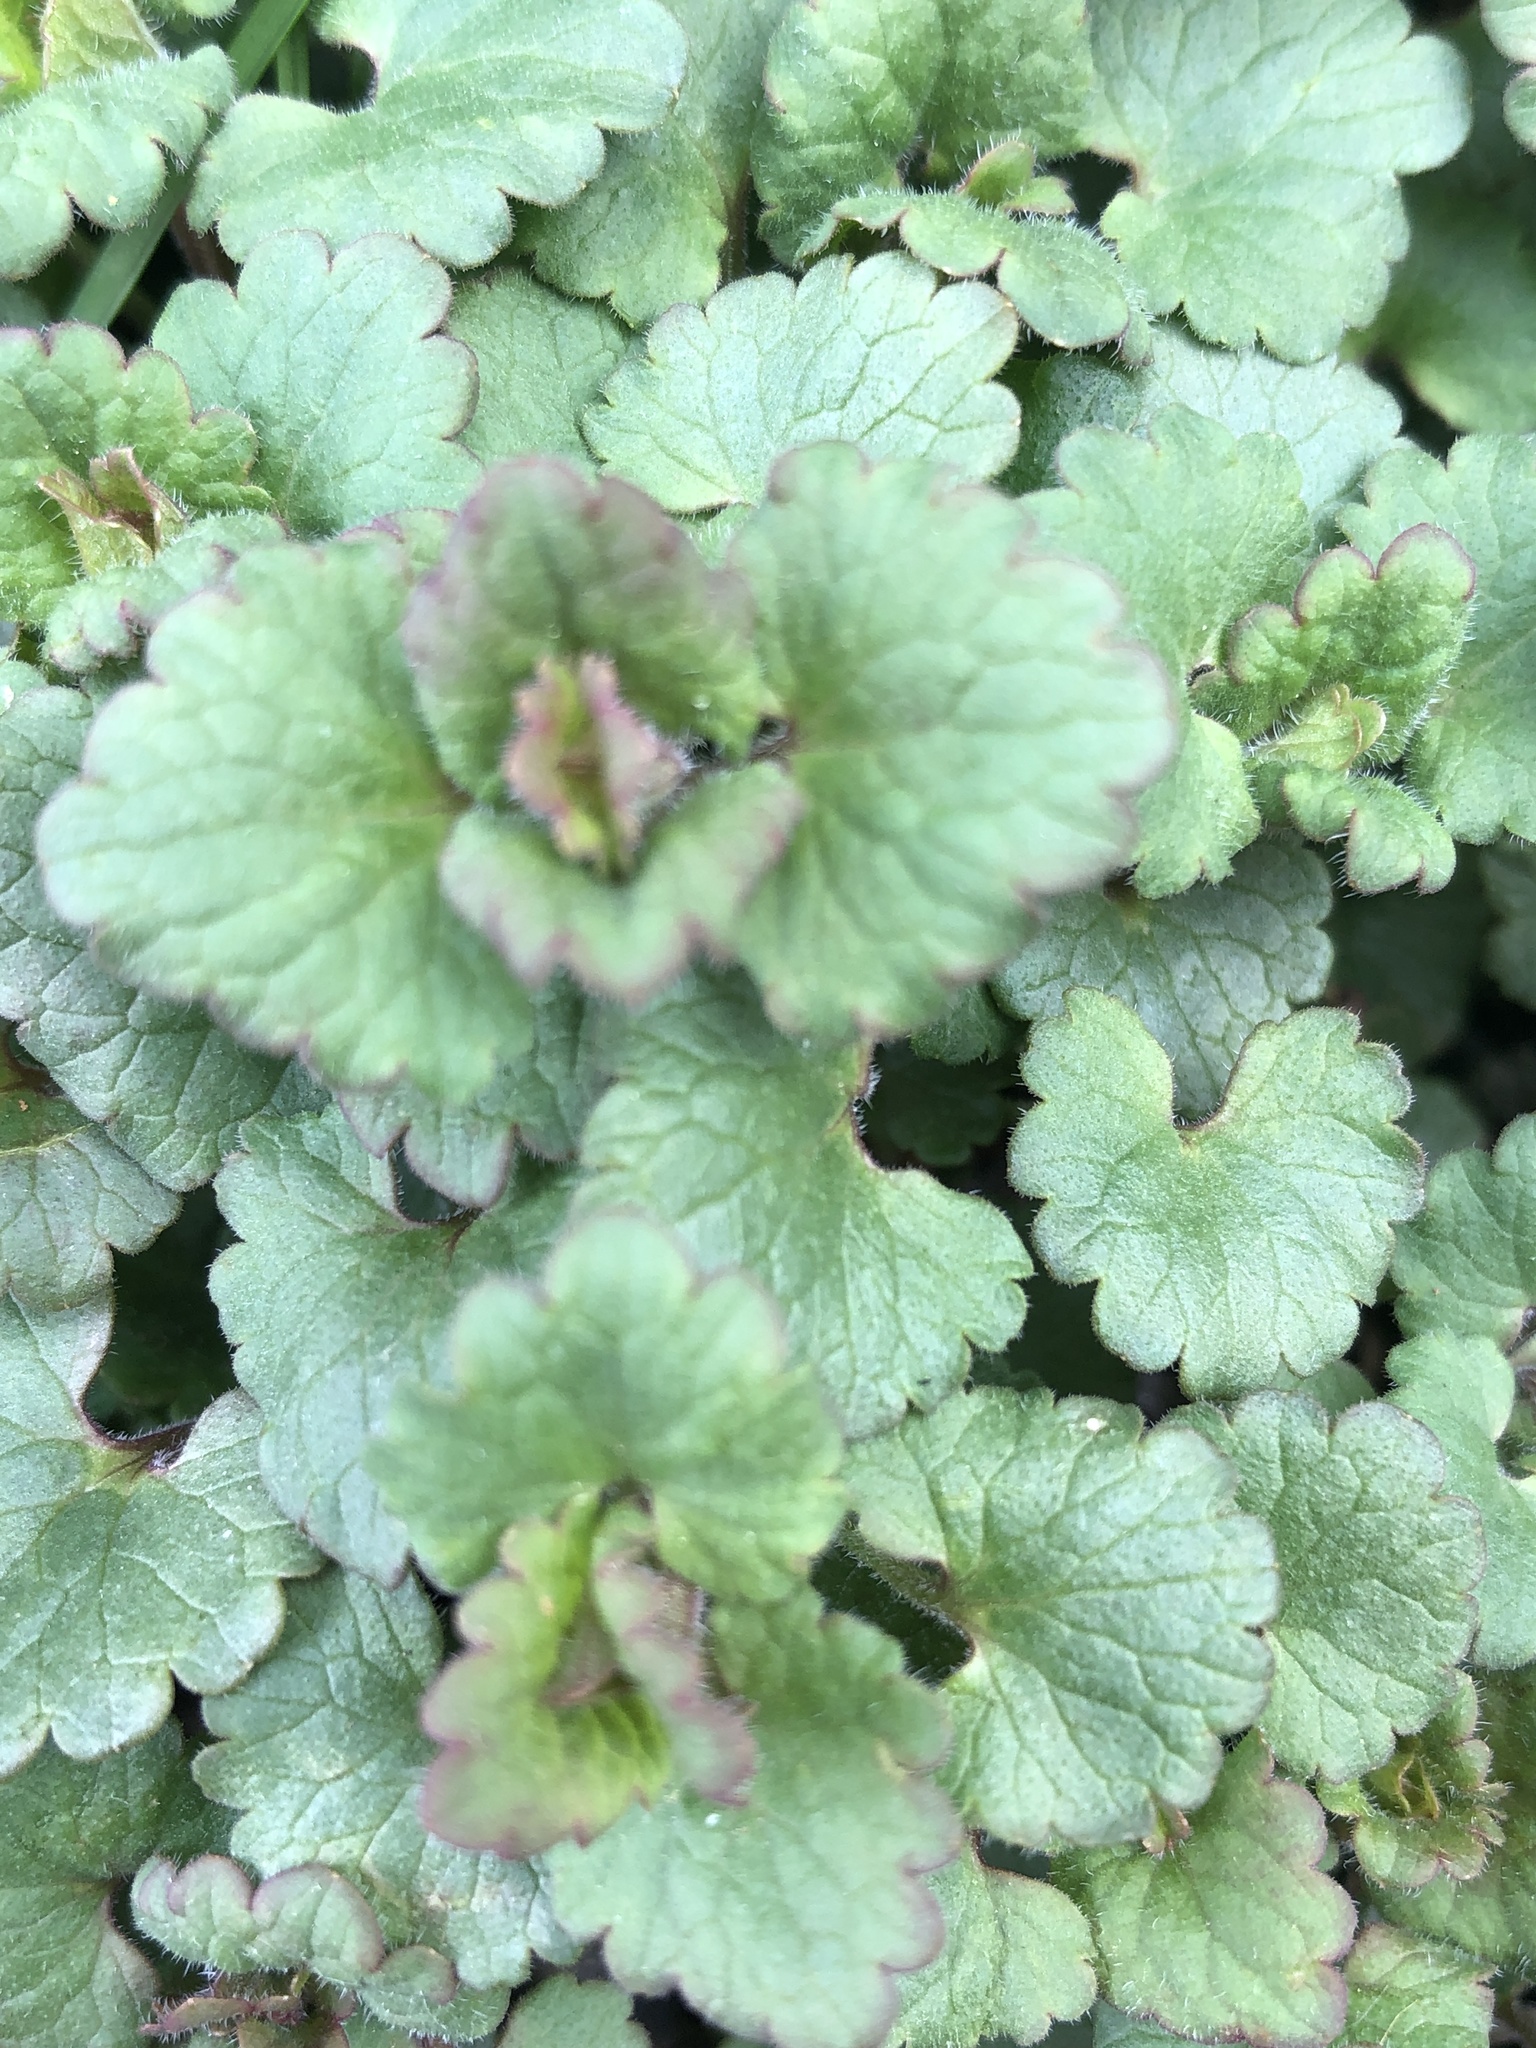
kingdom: Plantae
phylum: Tracheophyta
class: Magnoliopsida
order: Lamiales
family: Lamiaceae
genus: Glechoma
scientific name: Glechoma hederacea
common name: Ground ivy
